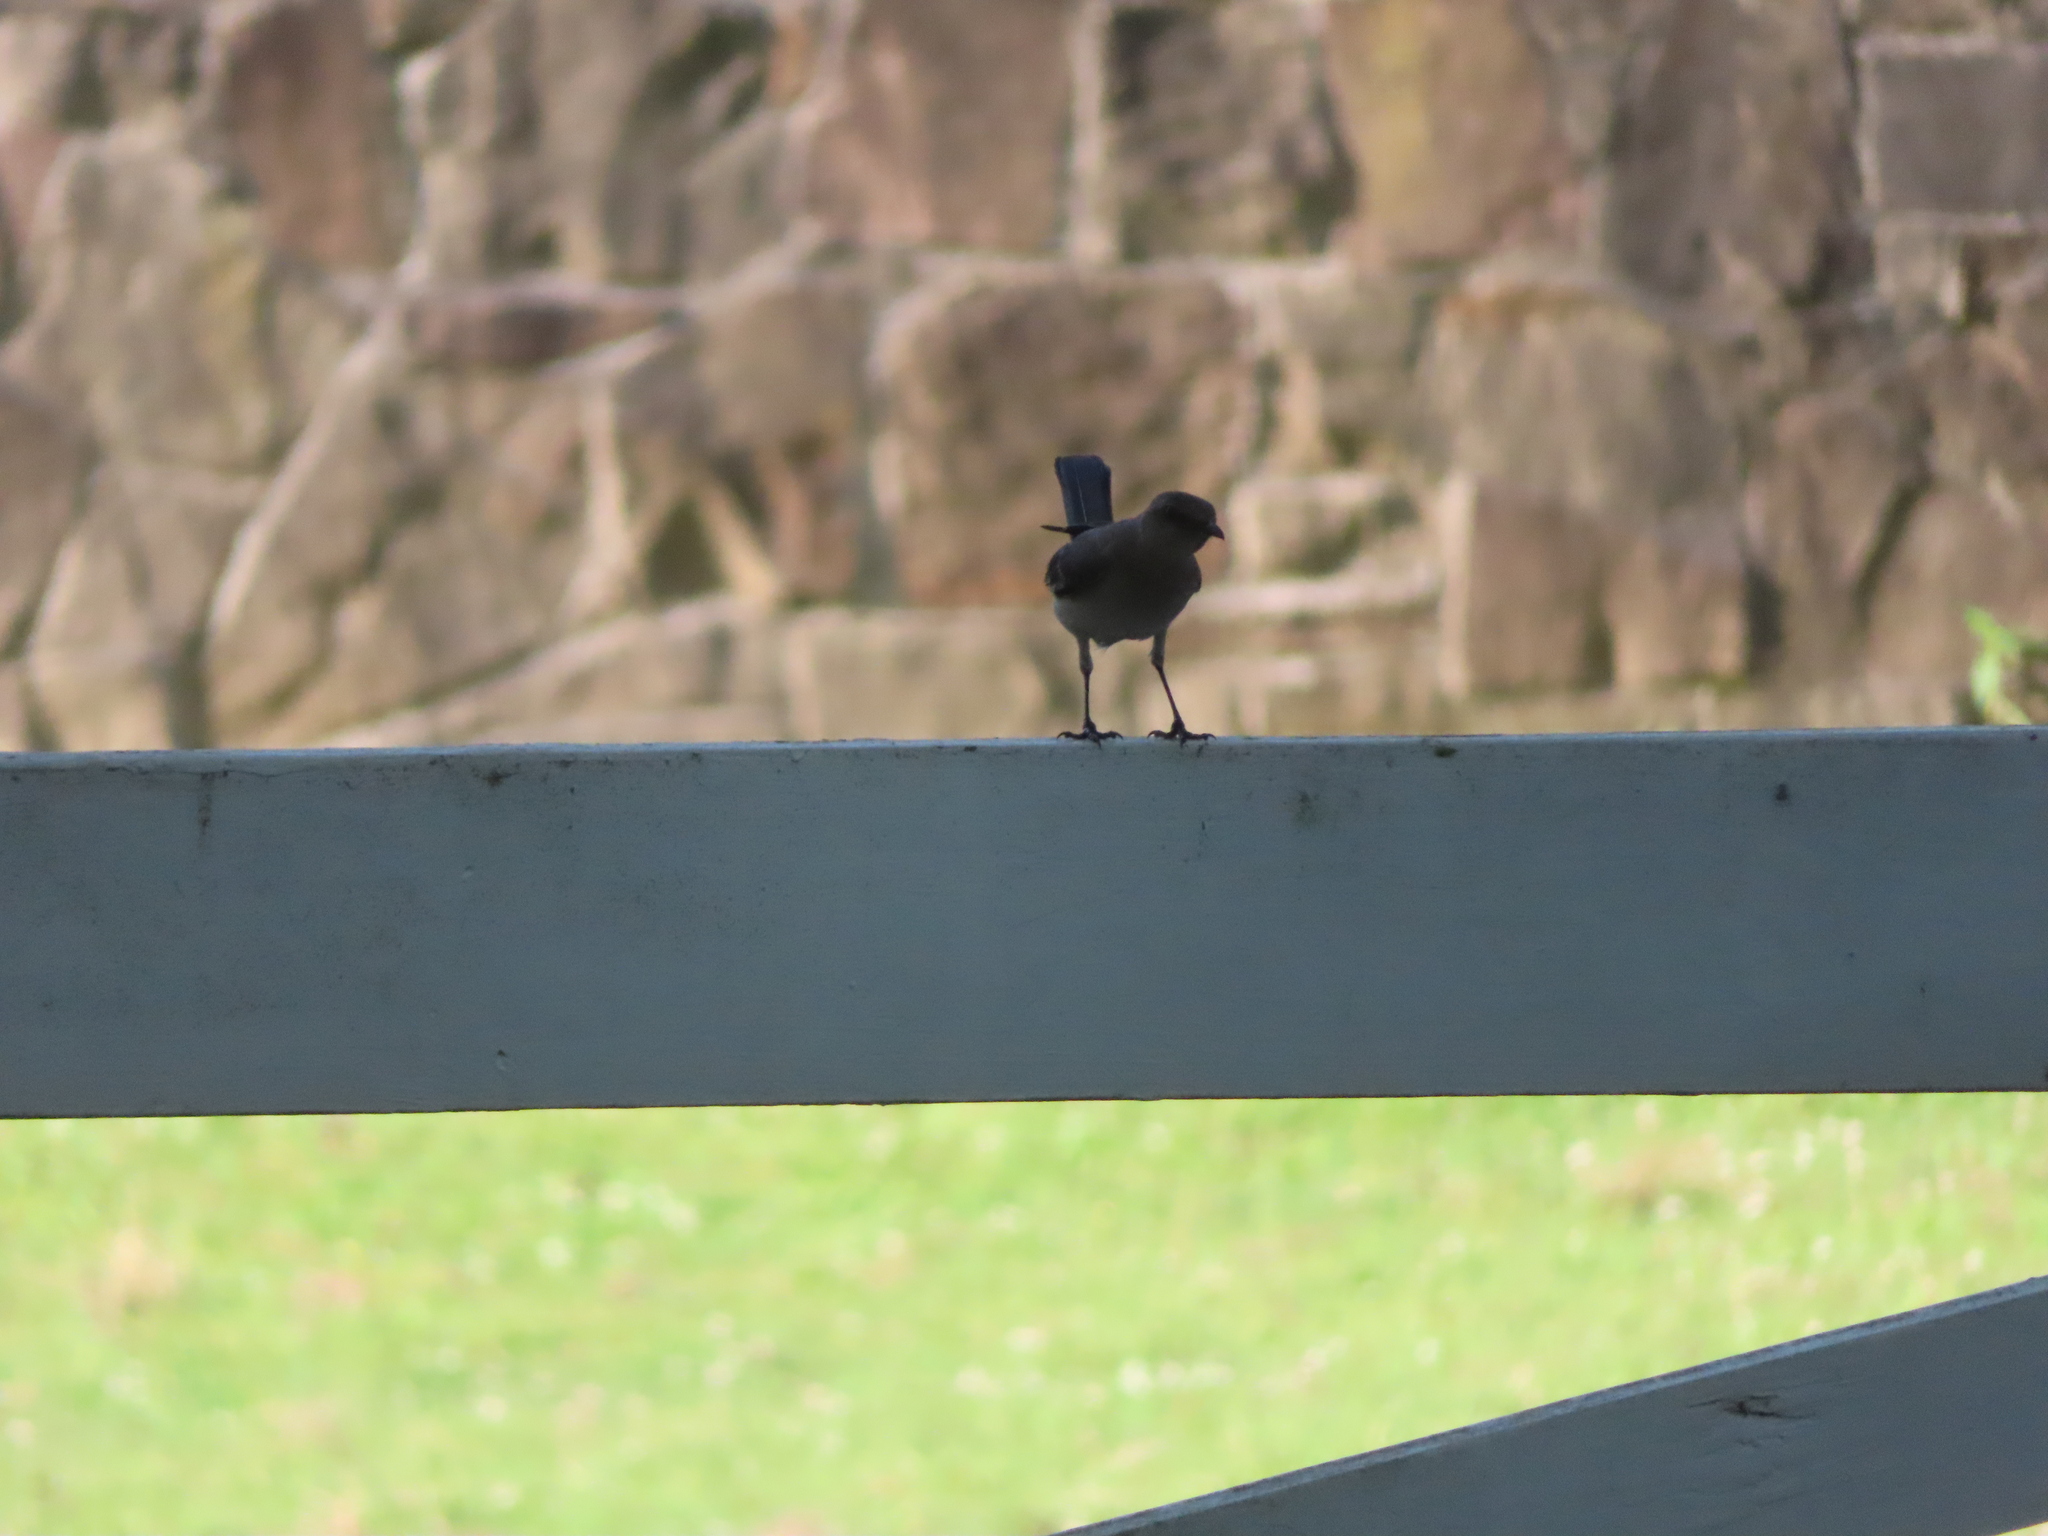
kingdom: Animalia
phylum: Chordata
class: Aves
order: Passeriformes
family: Mimidae
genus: Mimus
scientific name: Mimus polyglottos
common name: Northern mockingbird
